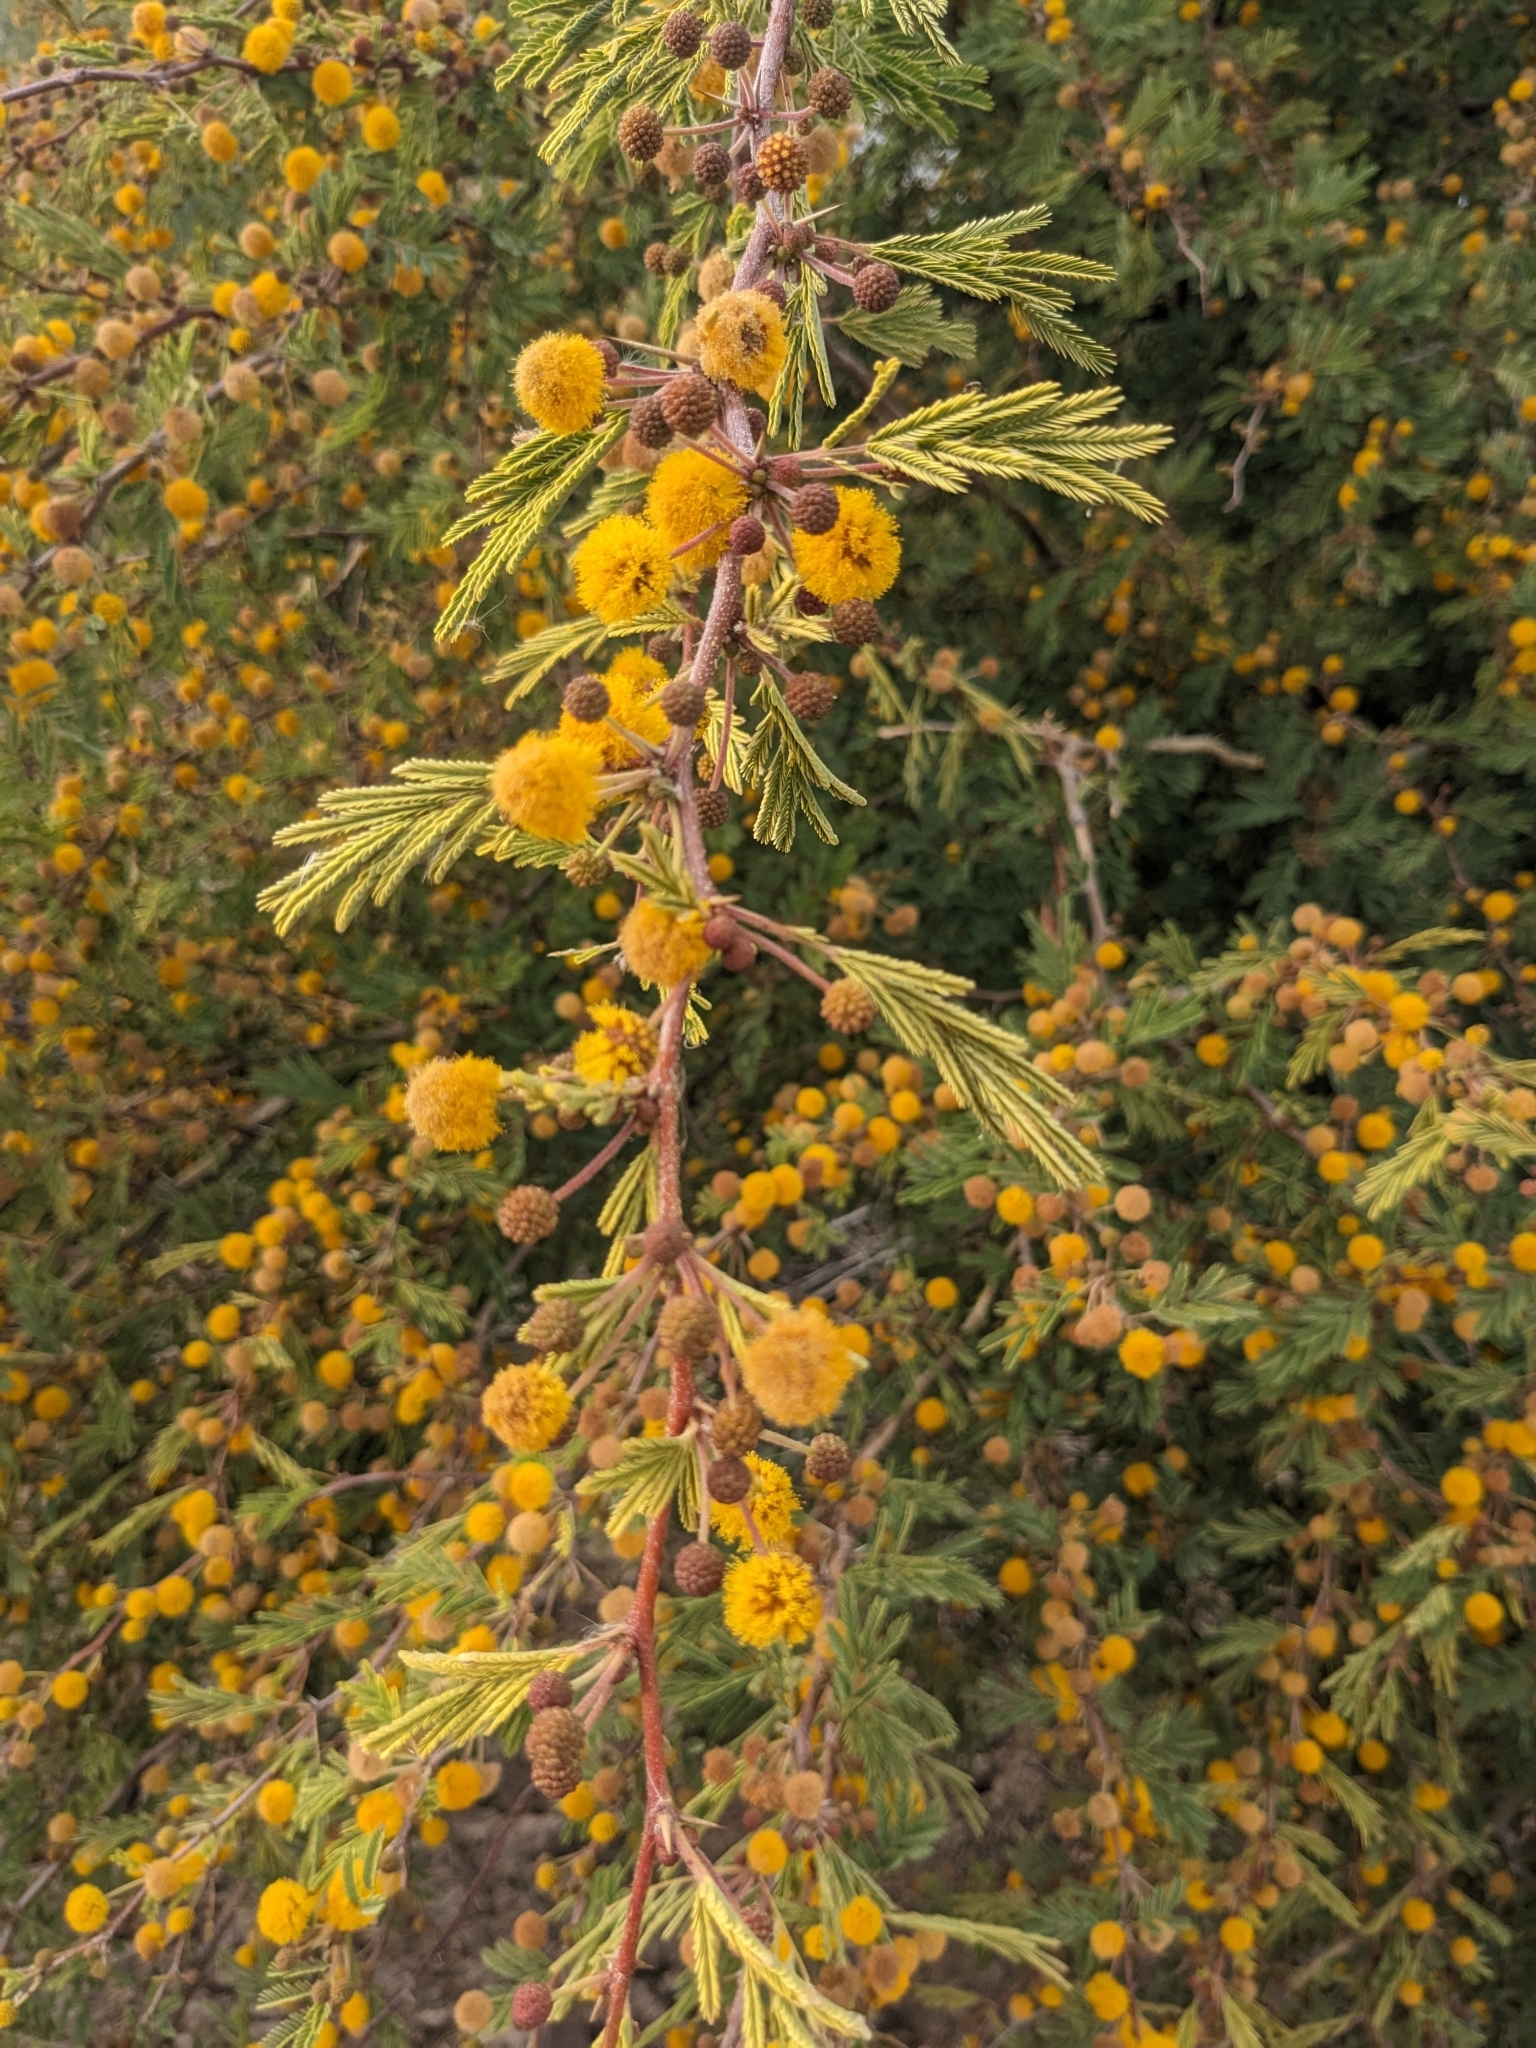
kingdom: Plantae
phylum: Tracheophyta
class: Magnoliopsida
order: Fabales
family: Fabaceae
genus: Vachellia
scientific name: Vachellia farnesiana
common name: Sweet acacia
